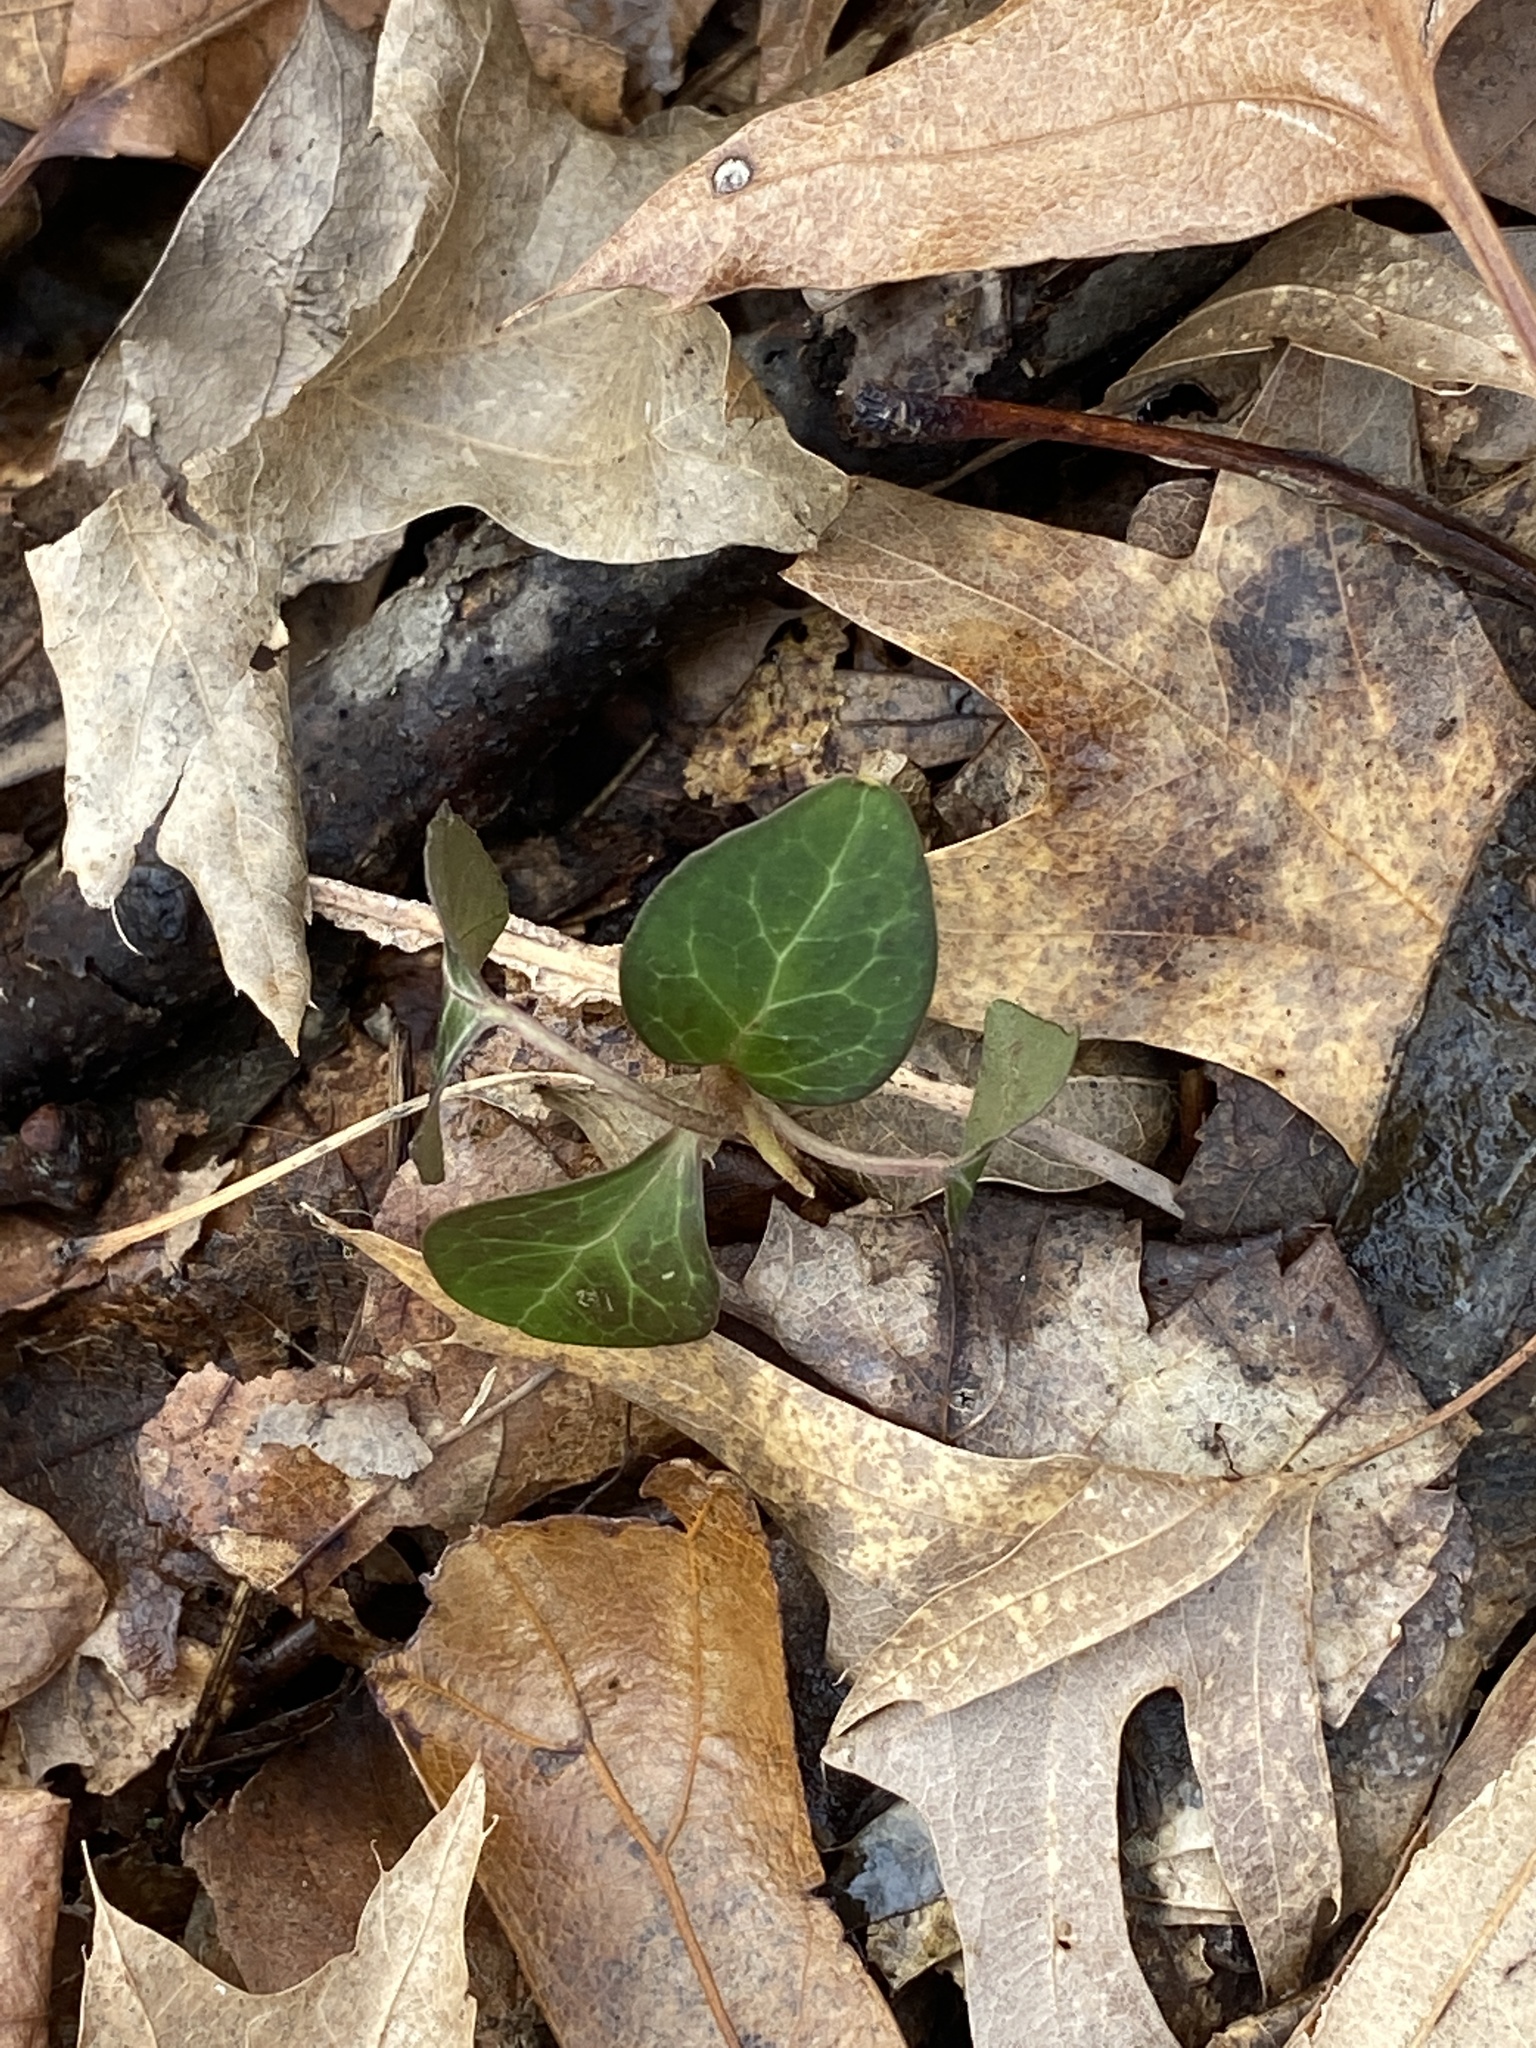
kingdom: Plantae
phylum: Tracheophyta
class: Magnoliopsida
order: Ericales
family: Ericaceae
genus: Pyrola
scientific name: Pyrola americana
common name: American wintergreen
